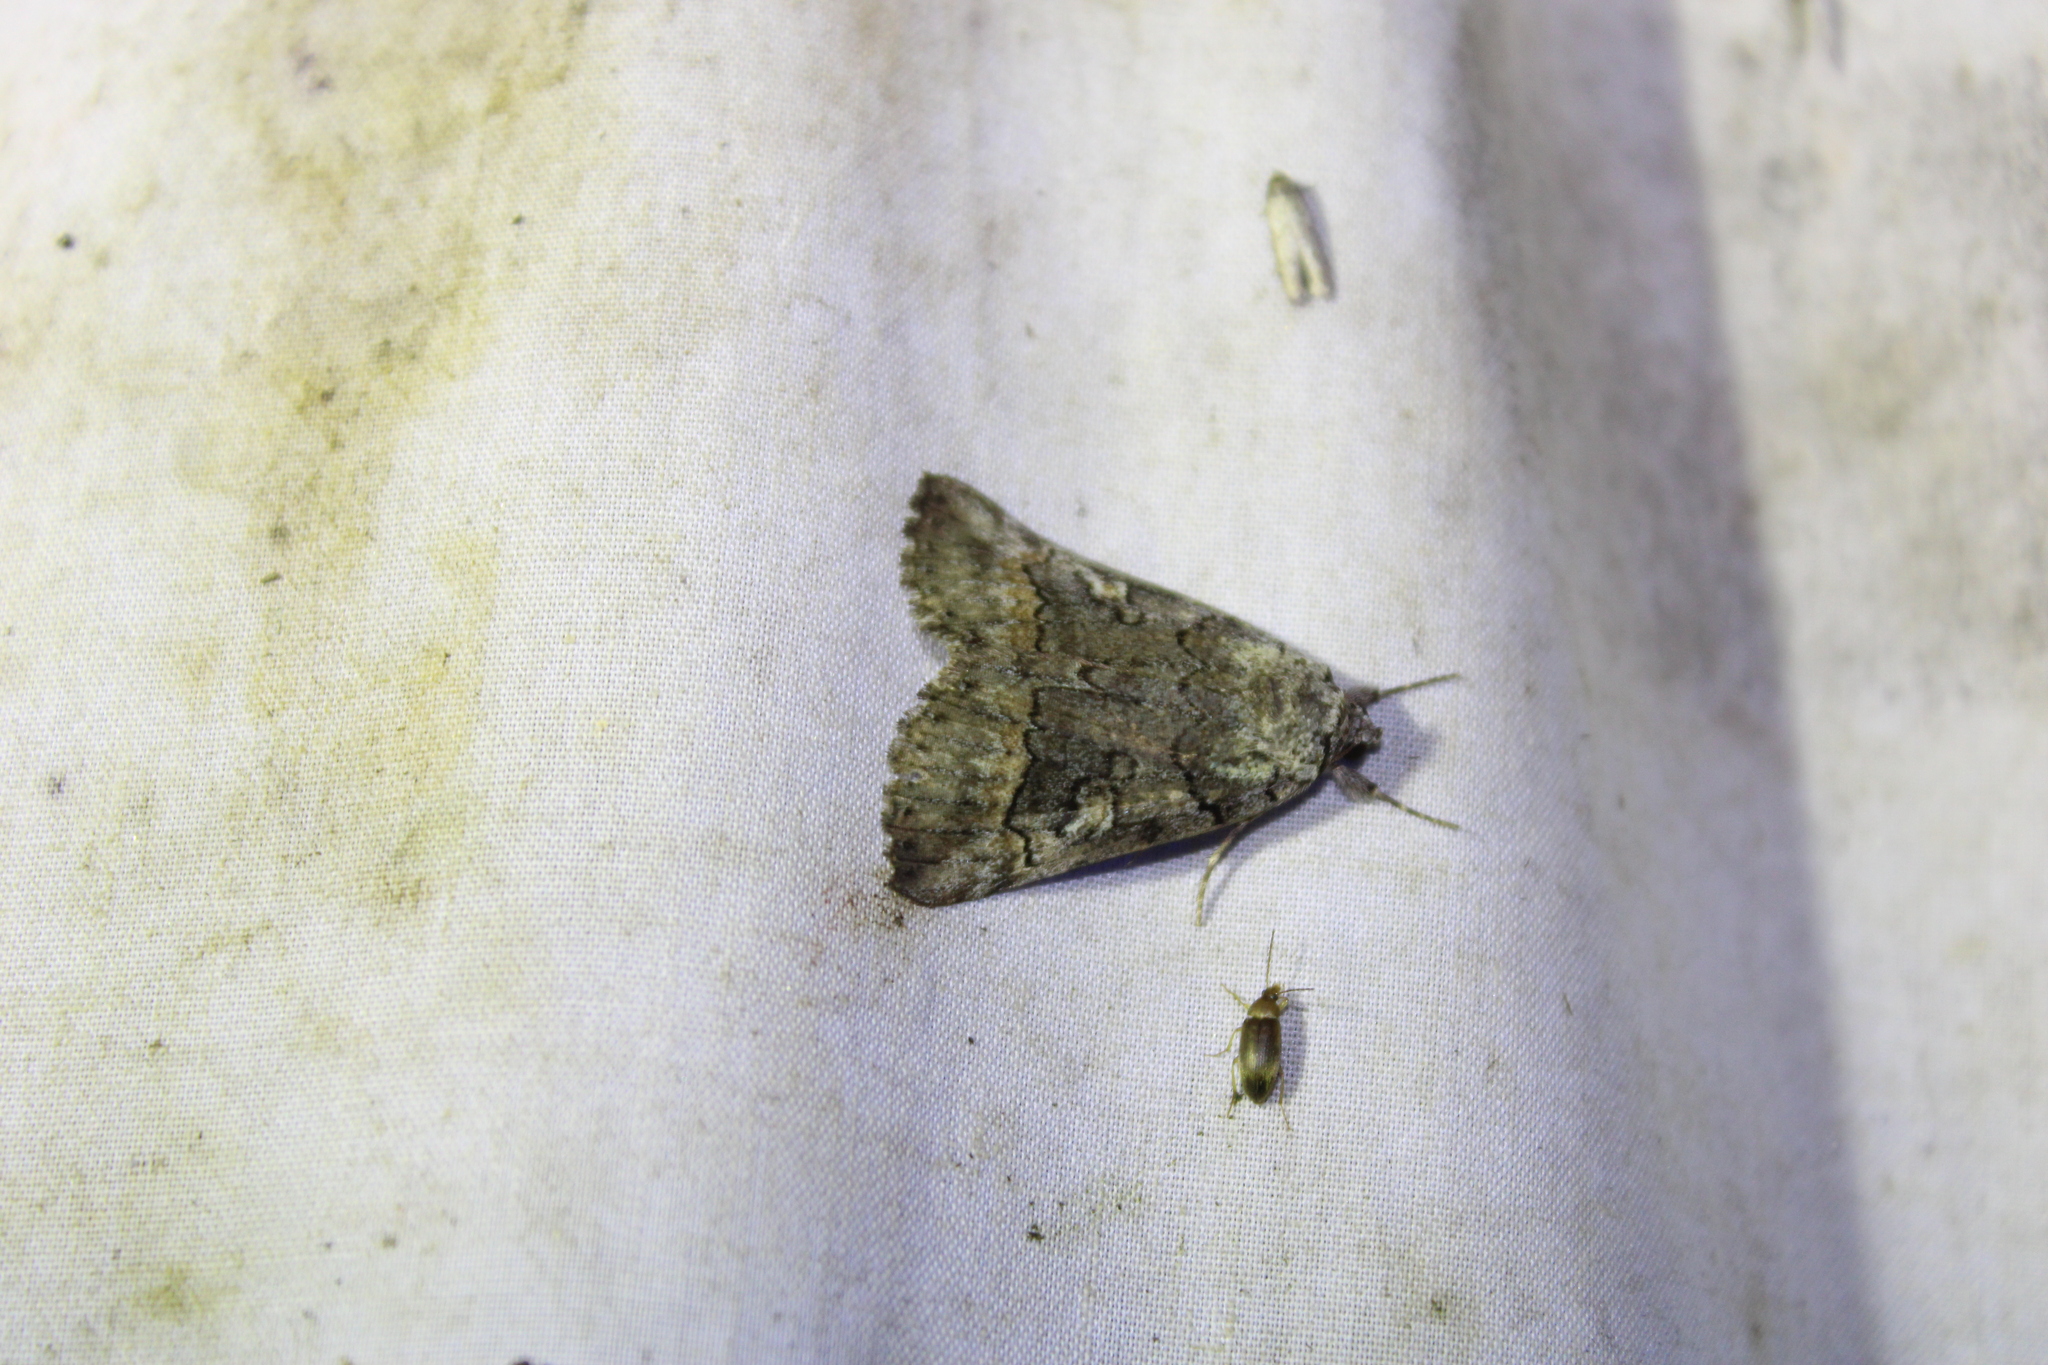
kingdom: Animalia
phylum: Arthropoda
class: Insecta
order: Lepidoptera
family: Erebidae
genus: Catocala
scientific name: Catocala similis
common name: Similar underwing
